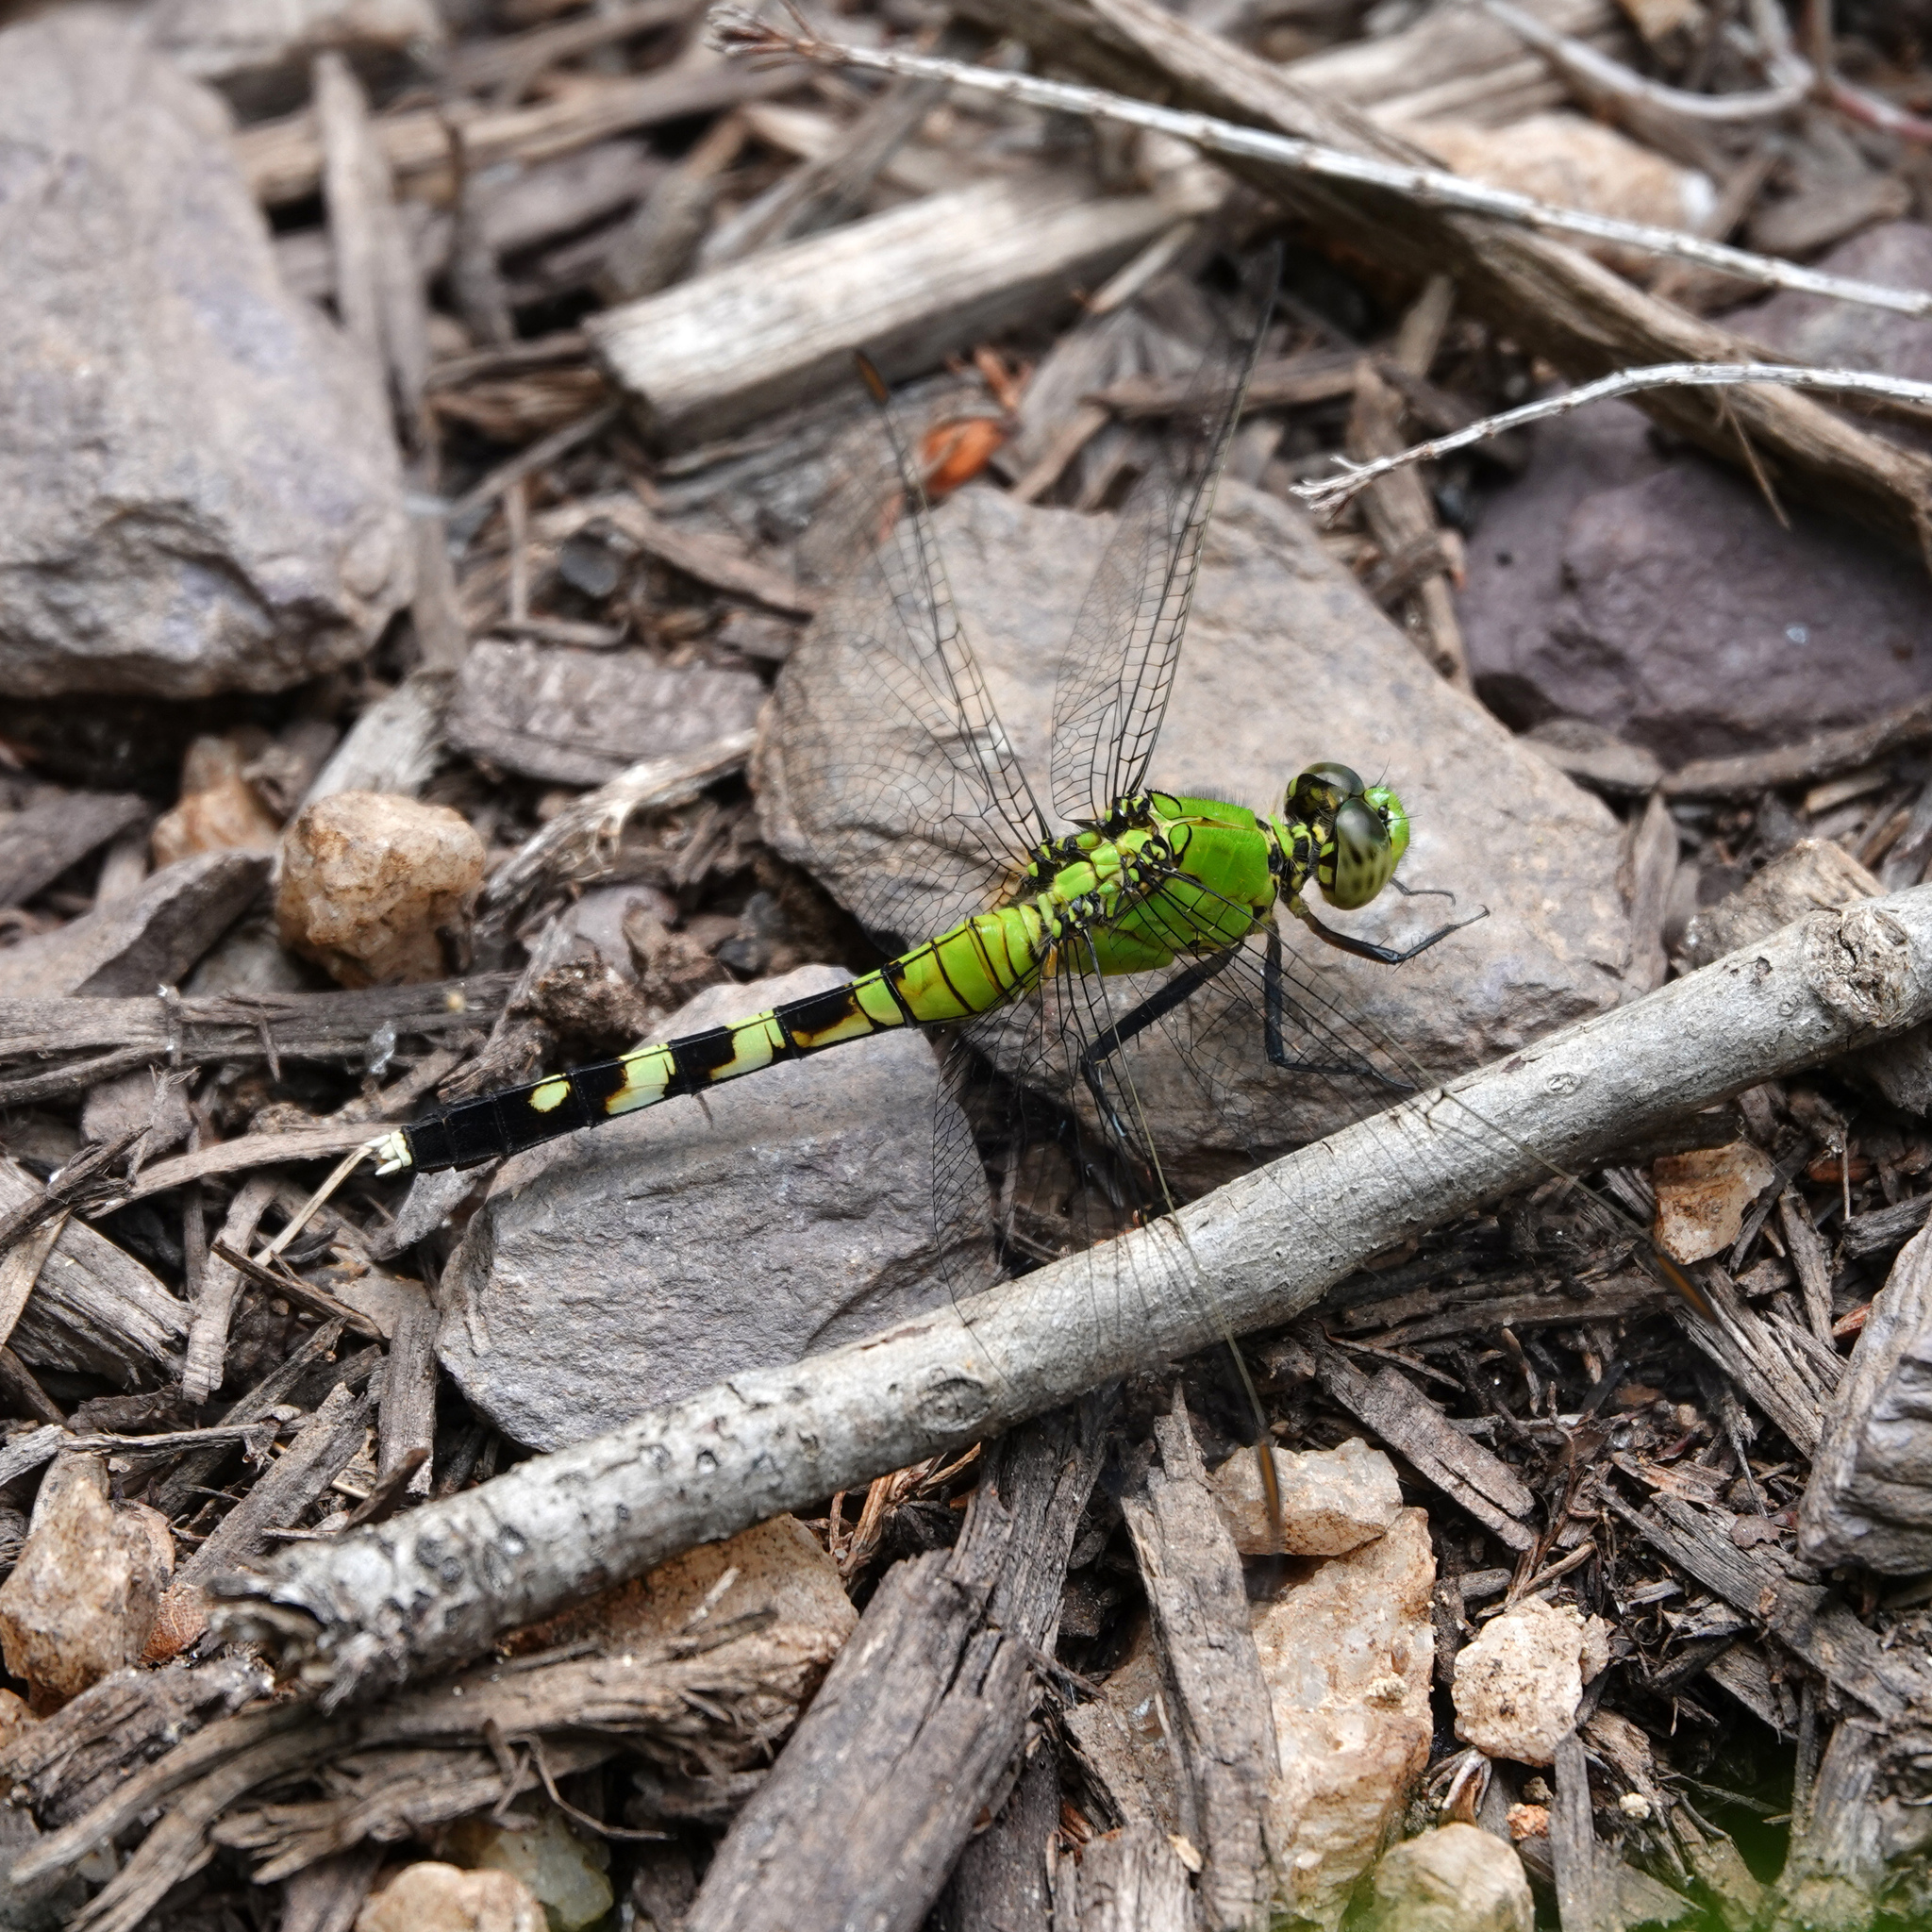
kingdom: Animalia
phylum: Arthropoda
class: Insecta
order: Odonata
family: Libellulidae
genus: Erythemis
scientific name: Erythemis simplicicollis
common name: Eastern pondhawk
